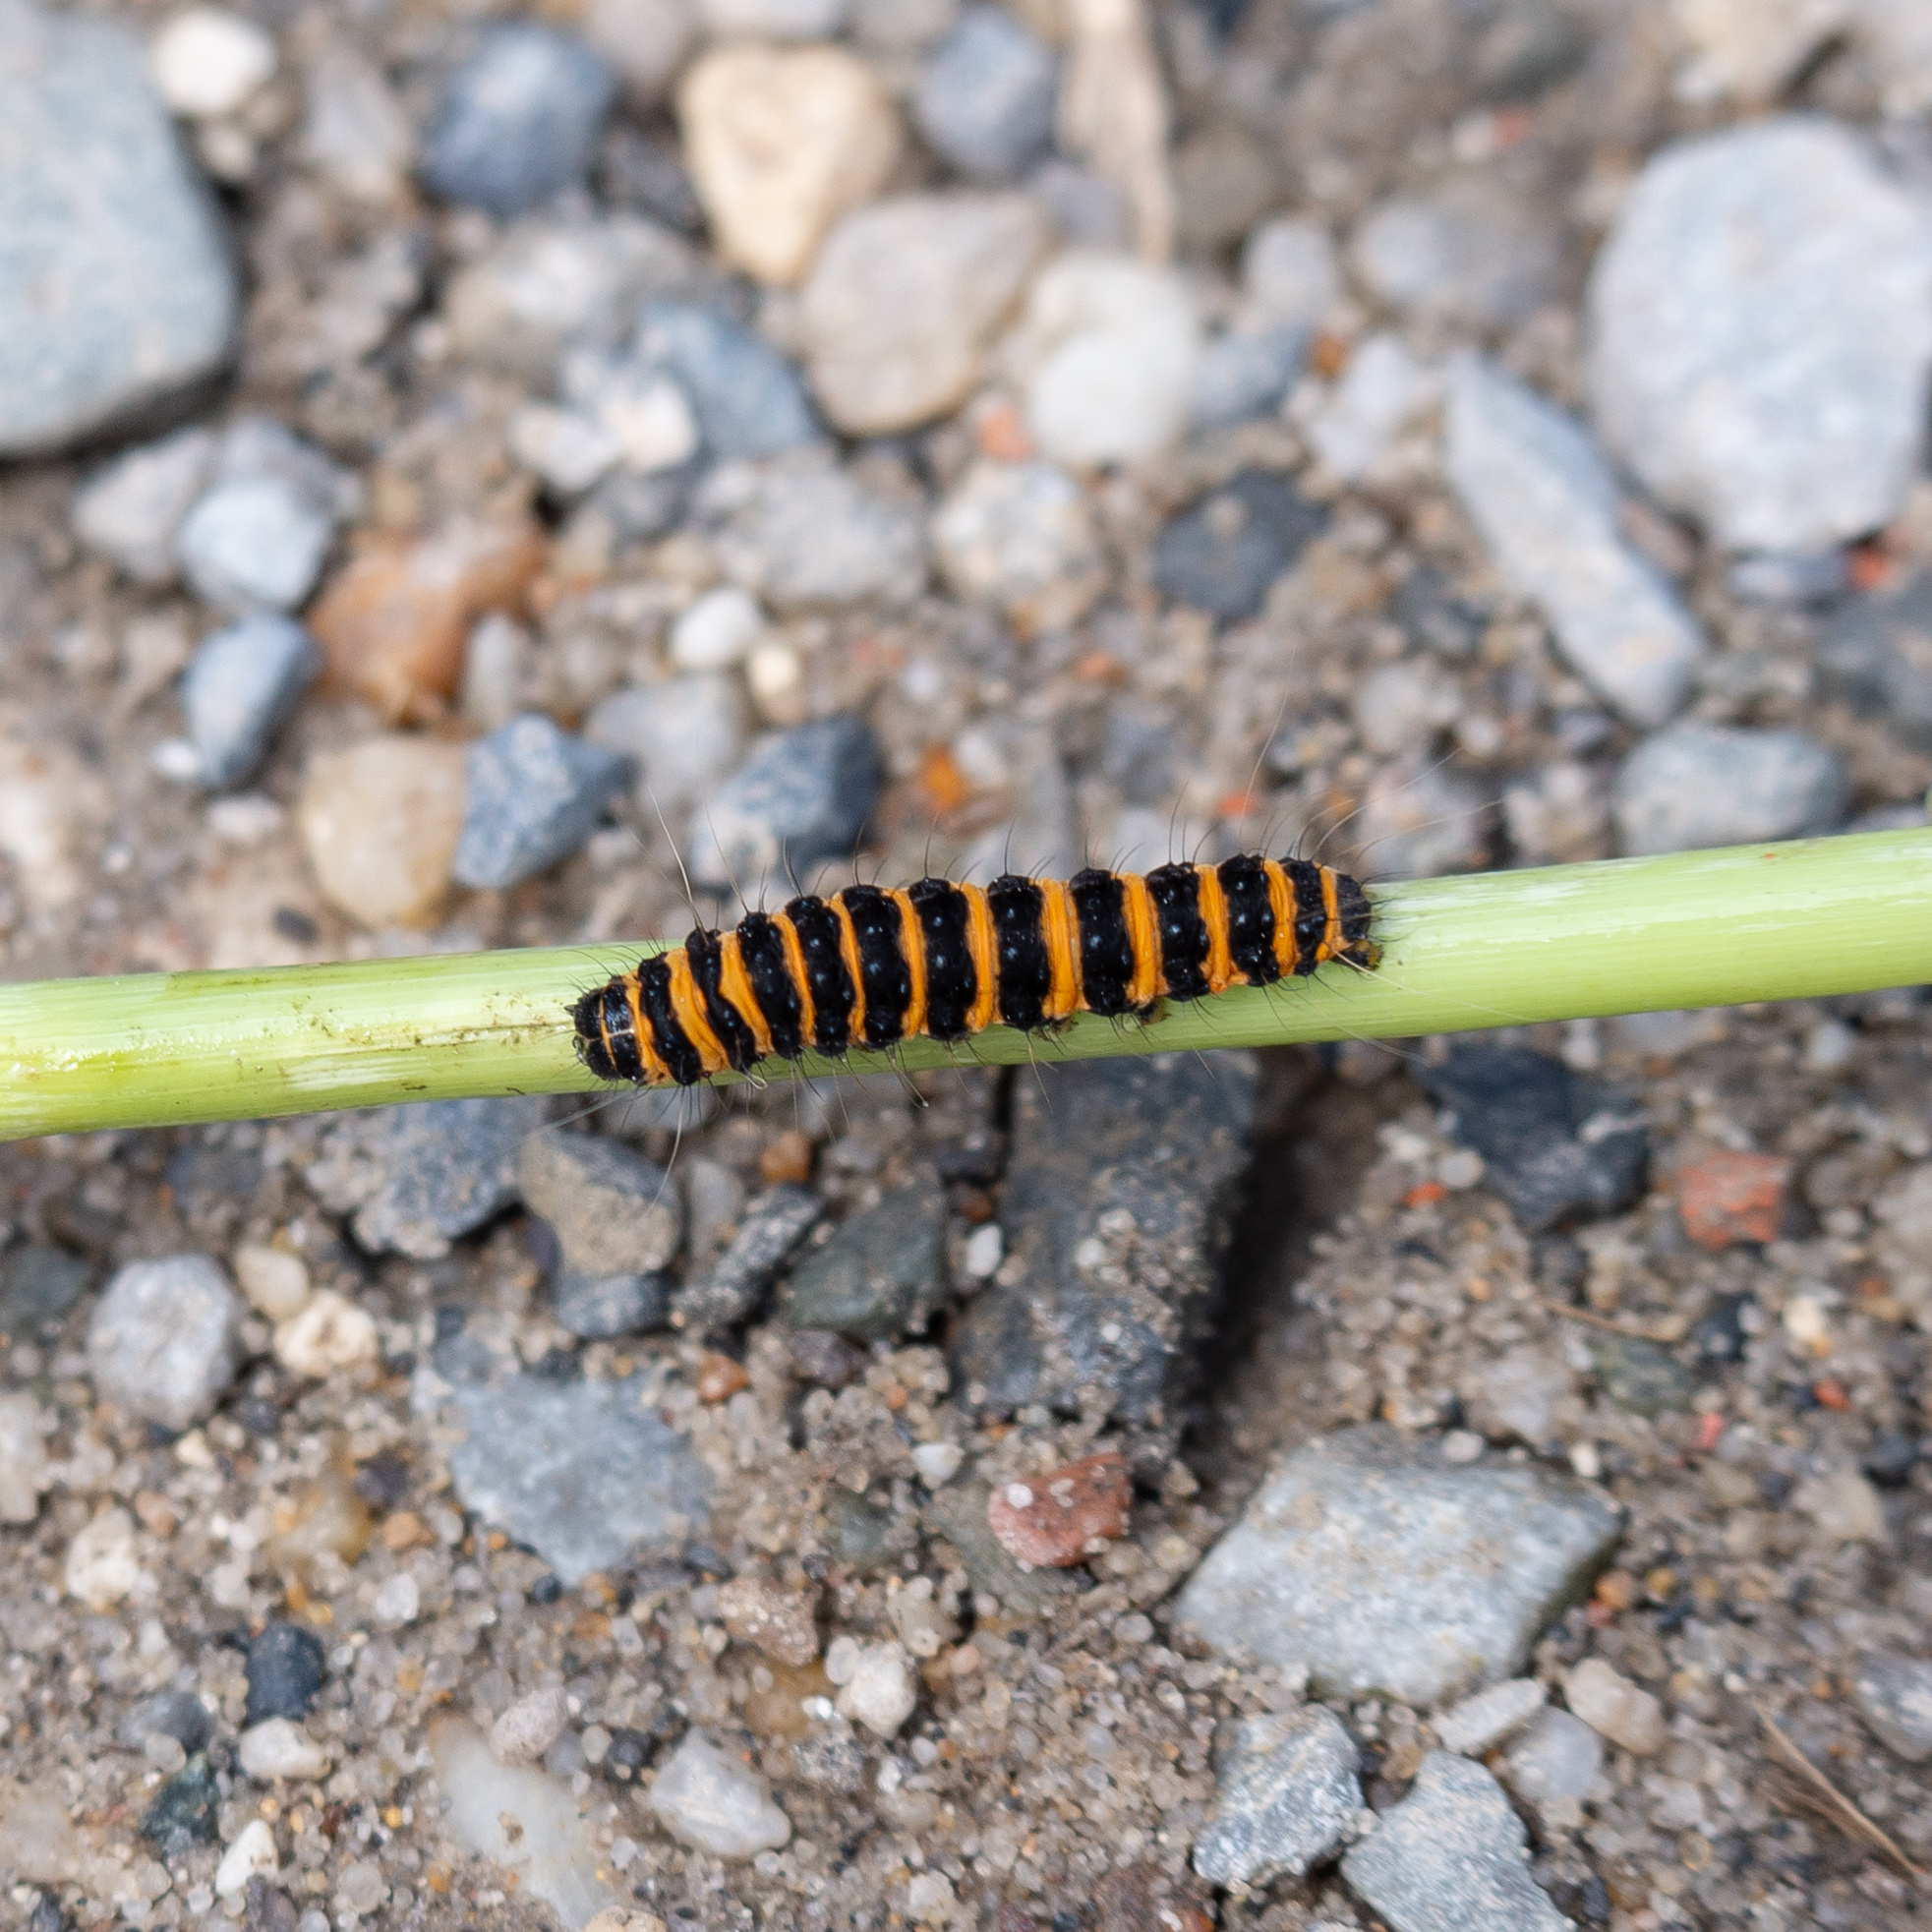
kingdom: Animalia
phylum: Arthropoda
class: Insecta
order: Lepidoptera
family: Erebidae
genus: Tyria
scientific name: Tyria jacobaeae
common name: Cinnabar
